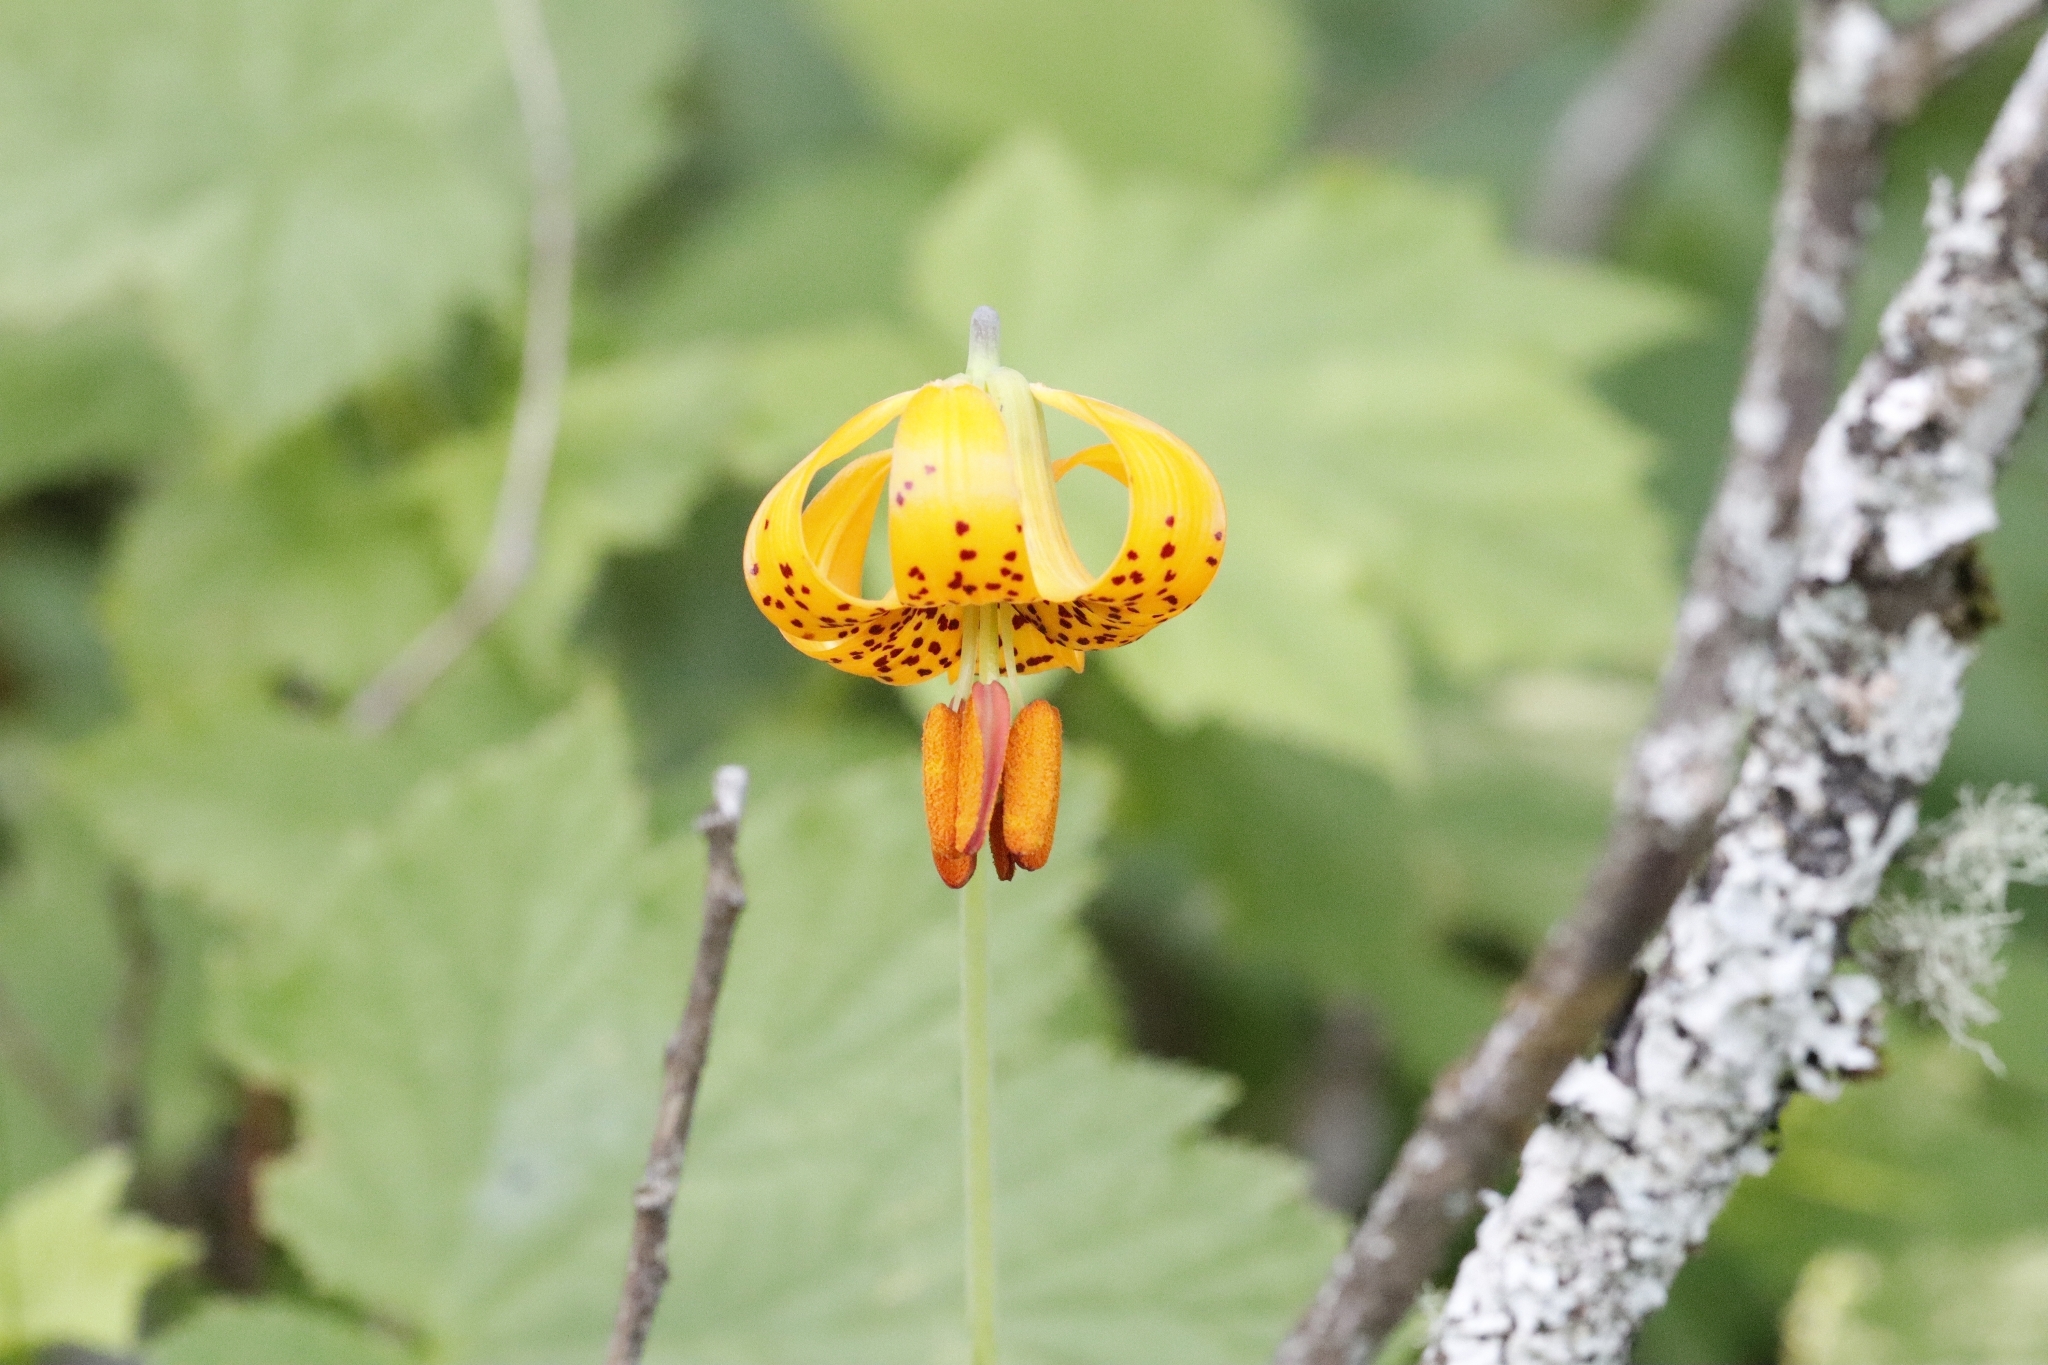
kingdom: Plantae
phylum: Tracheophyta
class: Liliopsida
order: Liliales
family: Liliaceae
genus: Lilium
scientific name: Lilium columbianum
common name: Columbia lily
